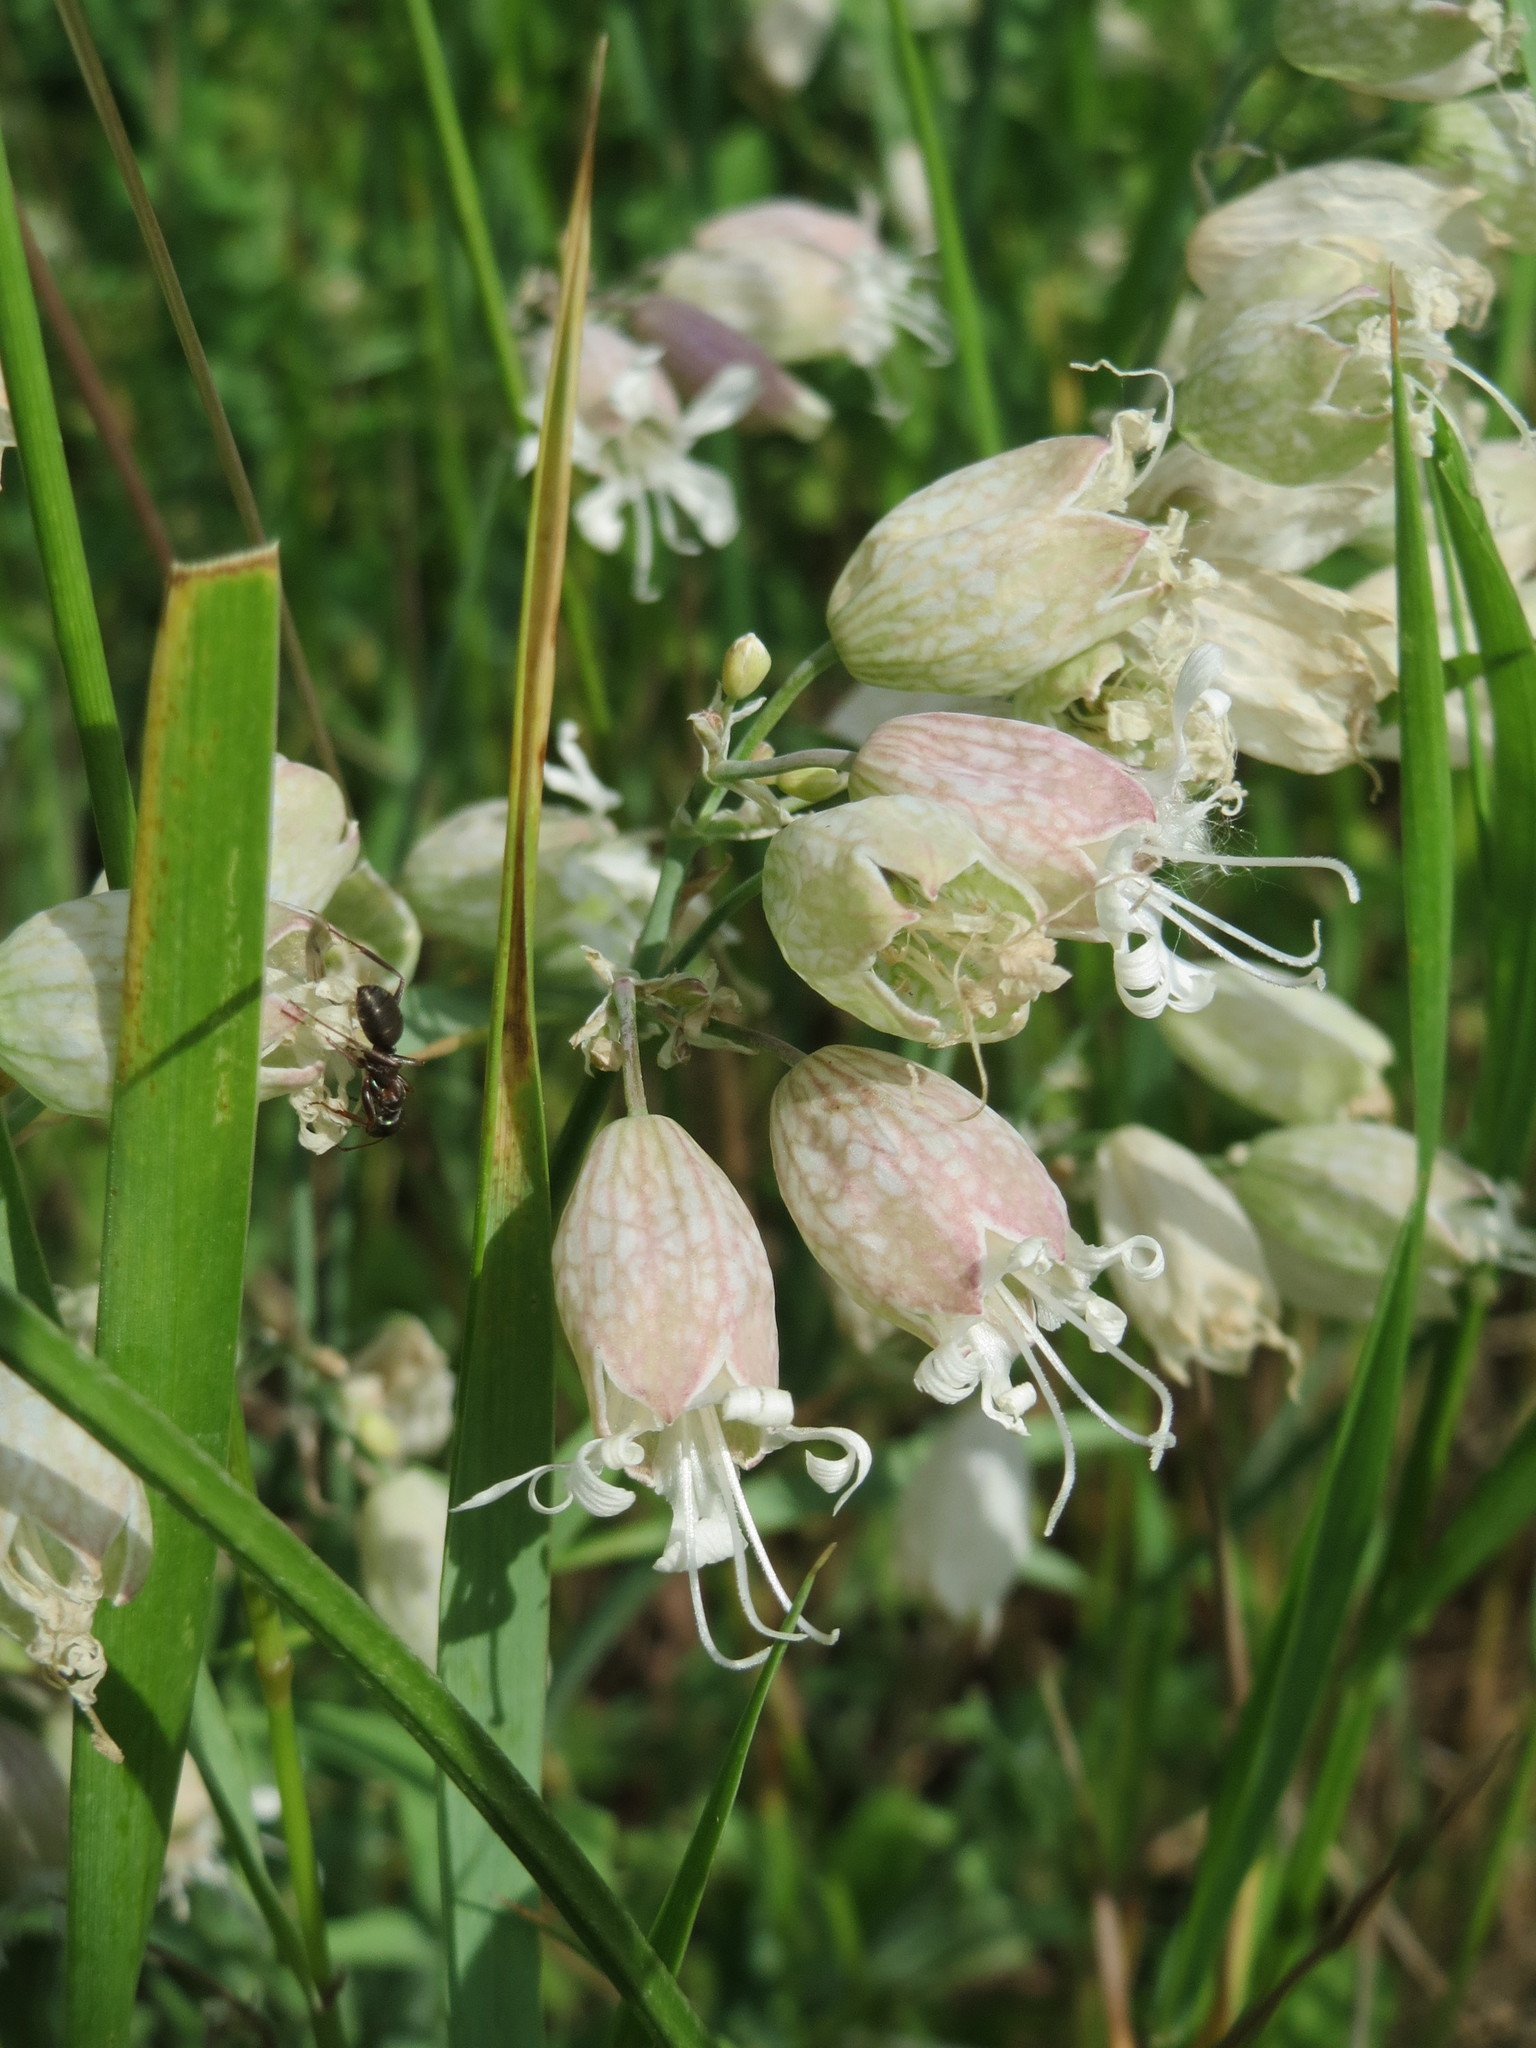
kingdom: Plantae
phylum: Tracheophyta
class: Magnoliopsida
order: Caryophyllales
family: Caryophyllaceae
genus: Silene
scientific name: Silene vulgaris
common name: Bladder campion
